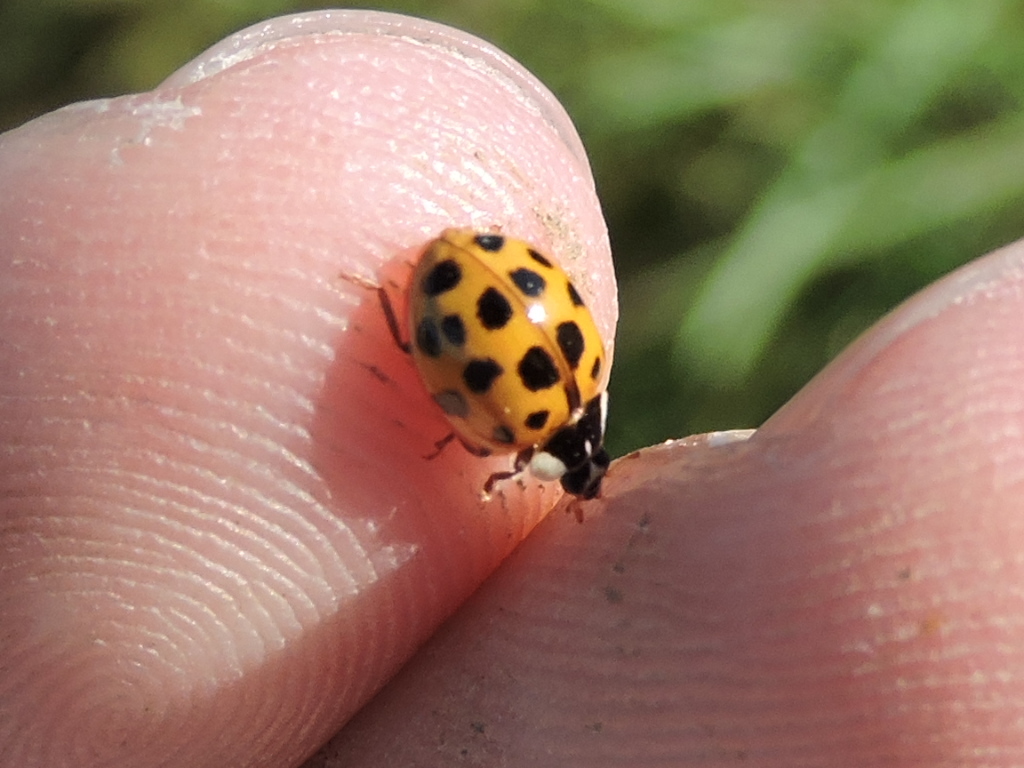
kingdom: Animalia
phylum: Arthropoda
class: Insecta
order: Coleoptera
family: Coccinellidae
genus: Harmonia
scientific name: Harmonia axyridis
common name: Harlequin ladybird
